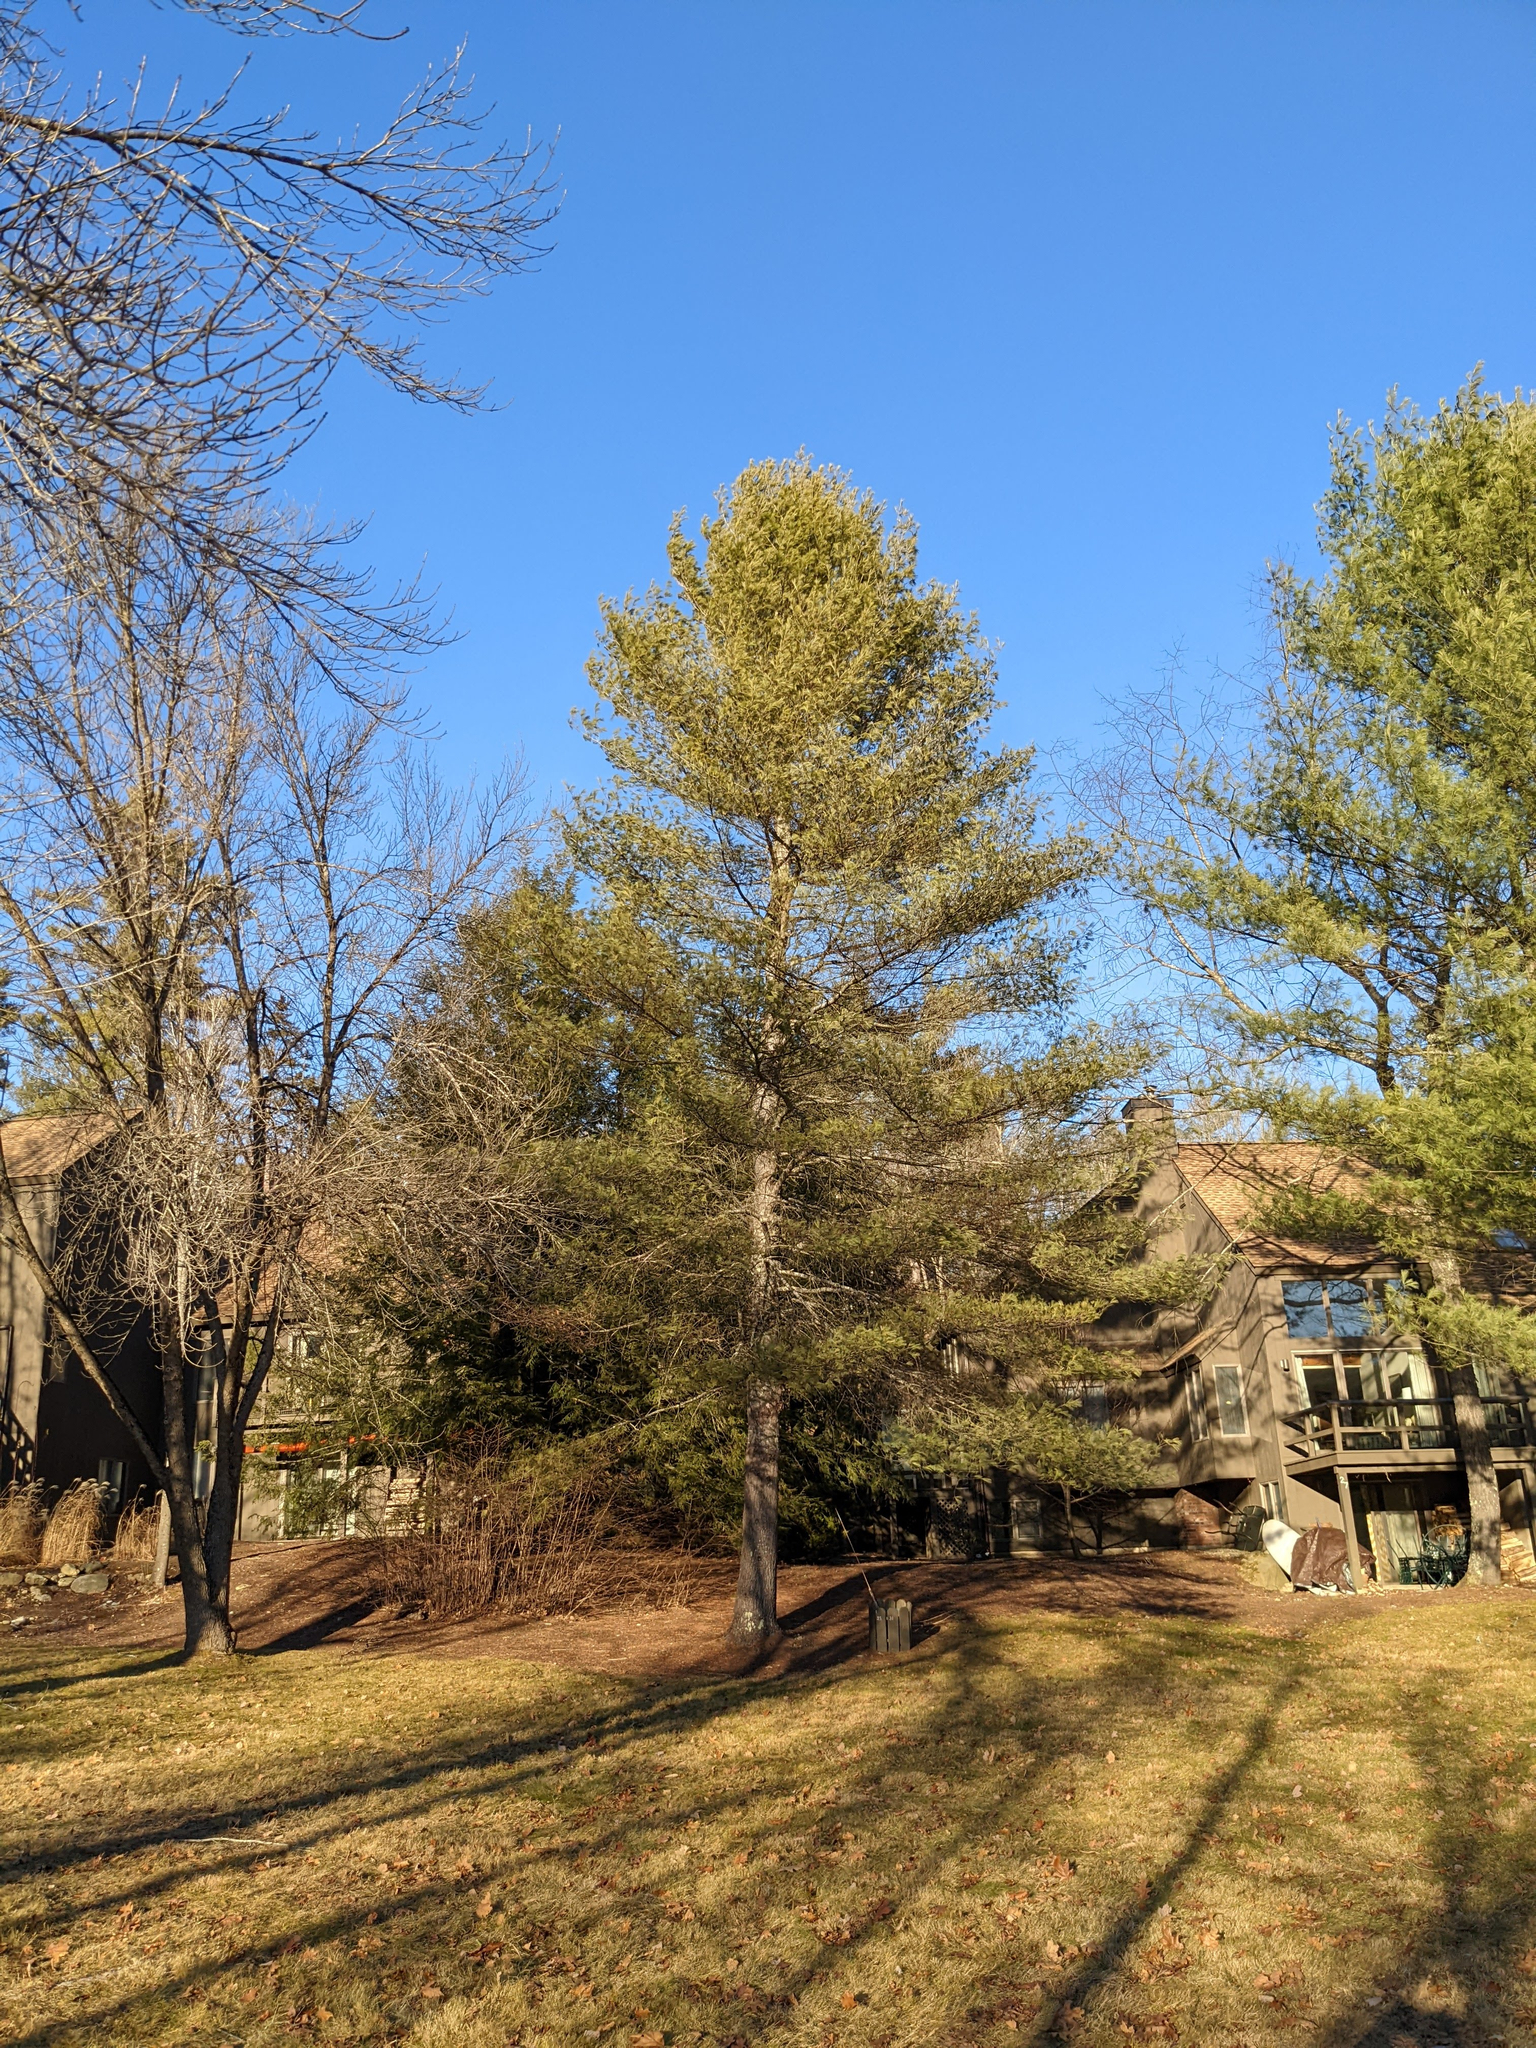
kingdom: Plantae
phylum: Tracheophyta
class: Pinopsida
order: Pinales
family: Pinaceae
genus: Pinus
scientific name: Pinus strobus
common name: Weymouth pine
